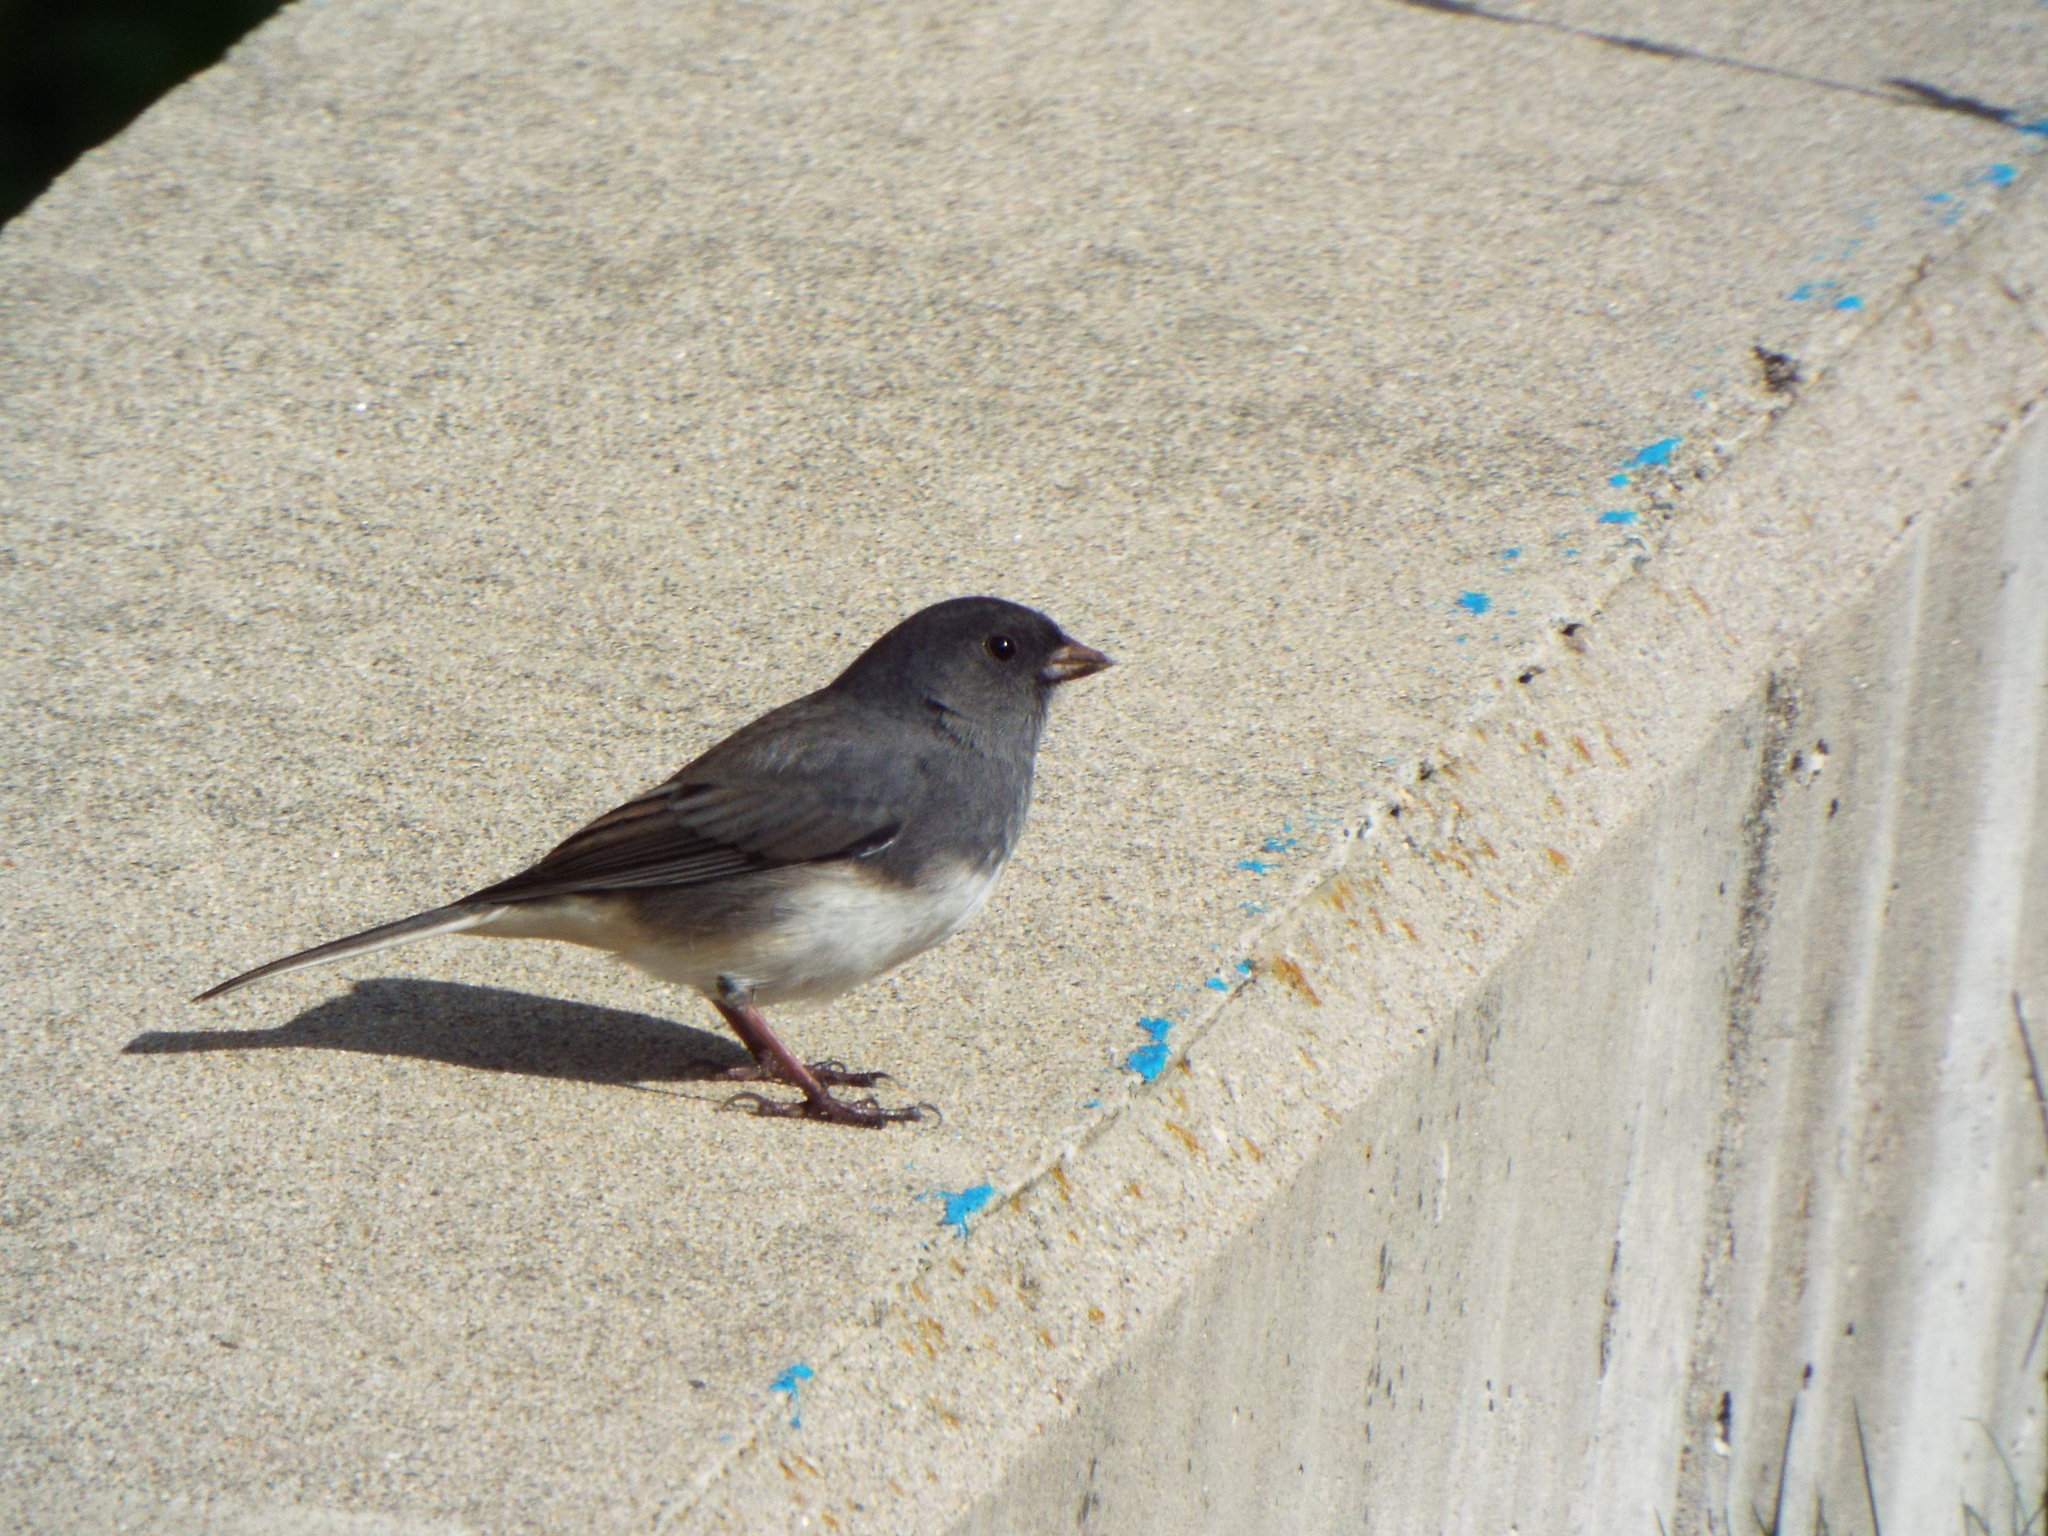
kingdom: Animalia
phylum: Chordata
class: Aves
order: Passeriformes
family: Passerellidae
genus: Junco
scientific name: Junco hyemalis
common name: Dark-eyed junco
